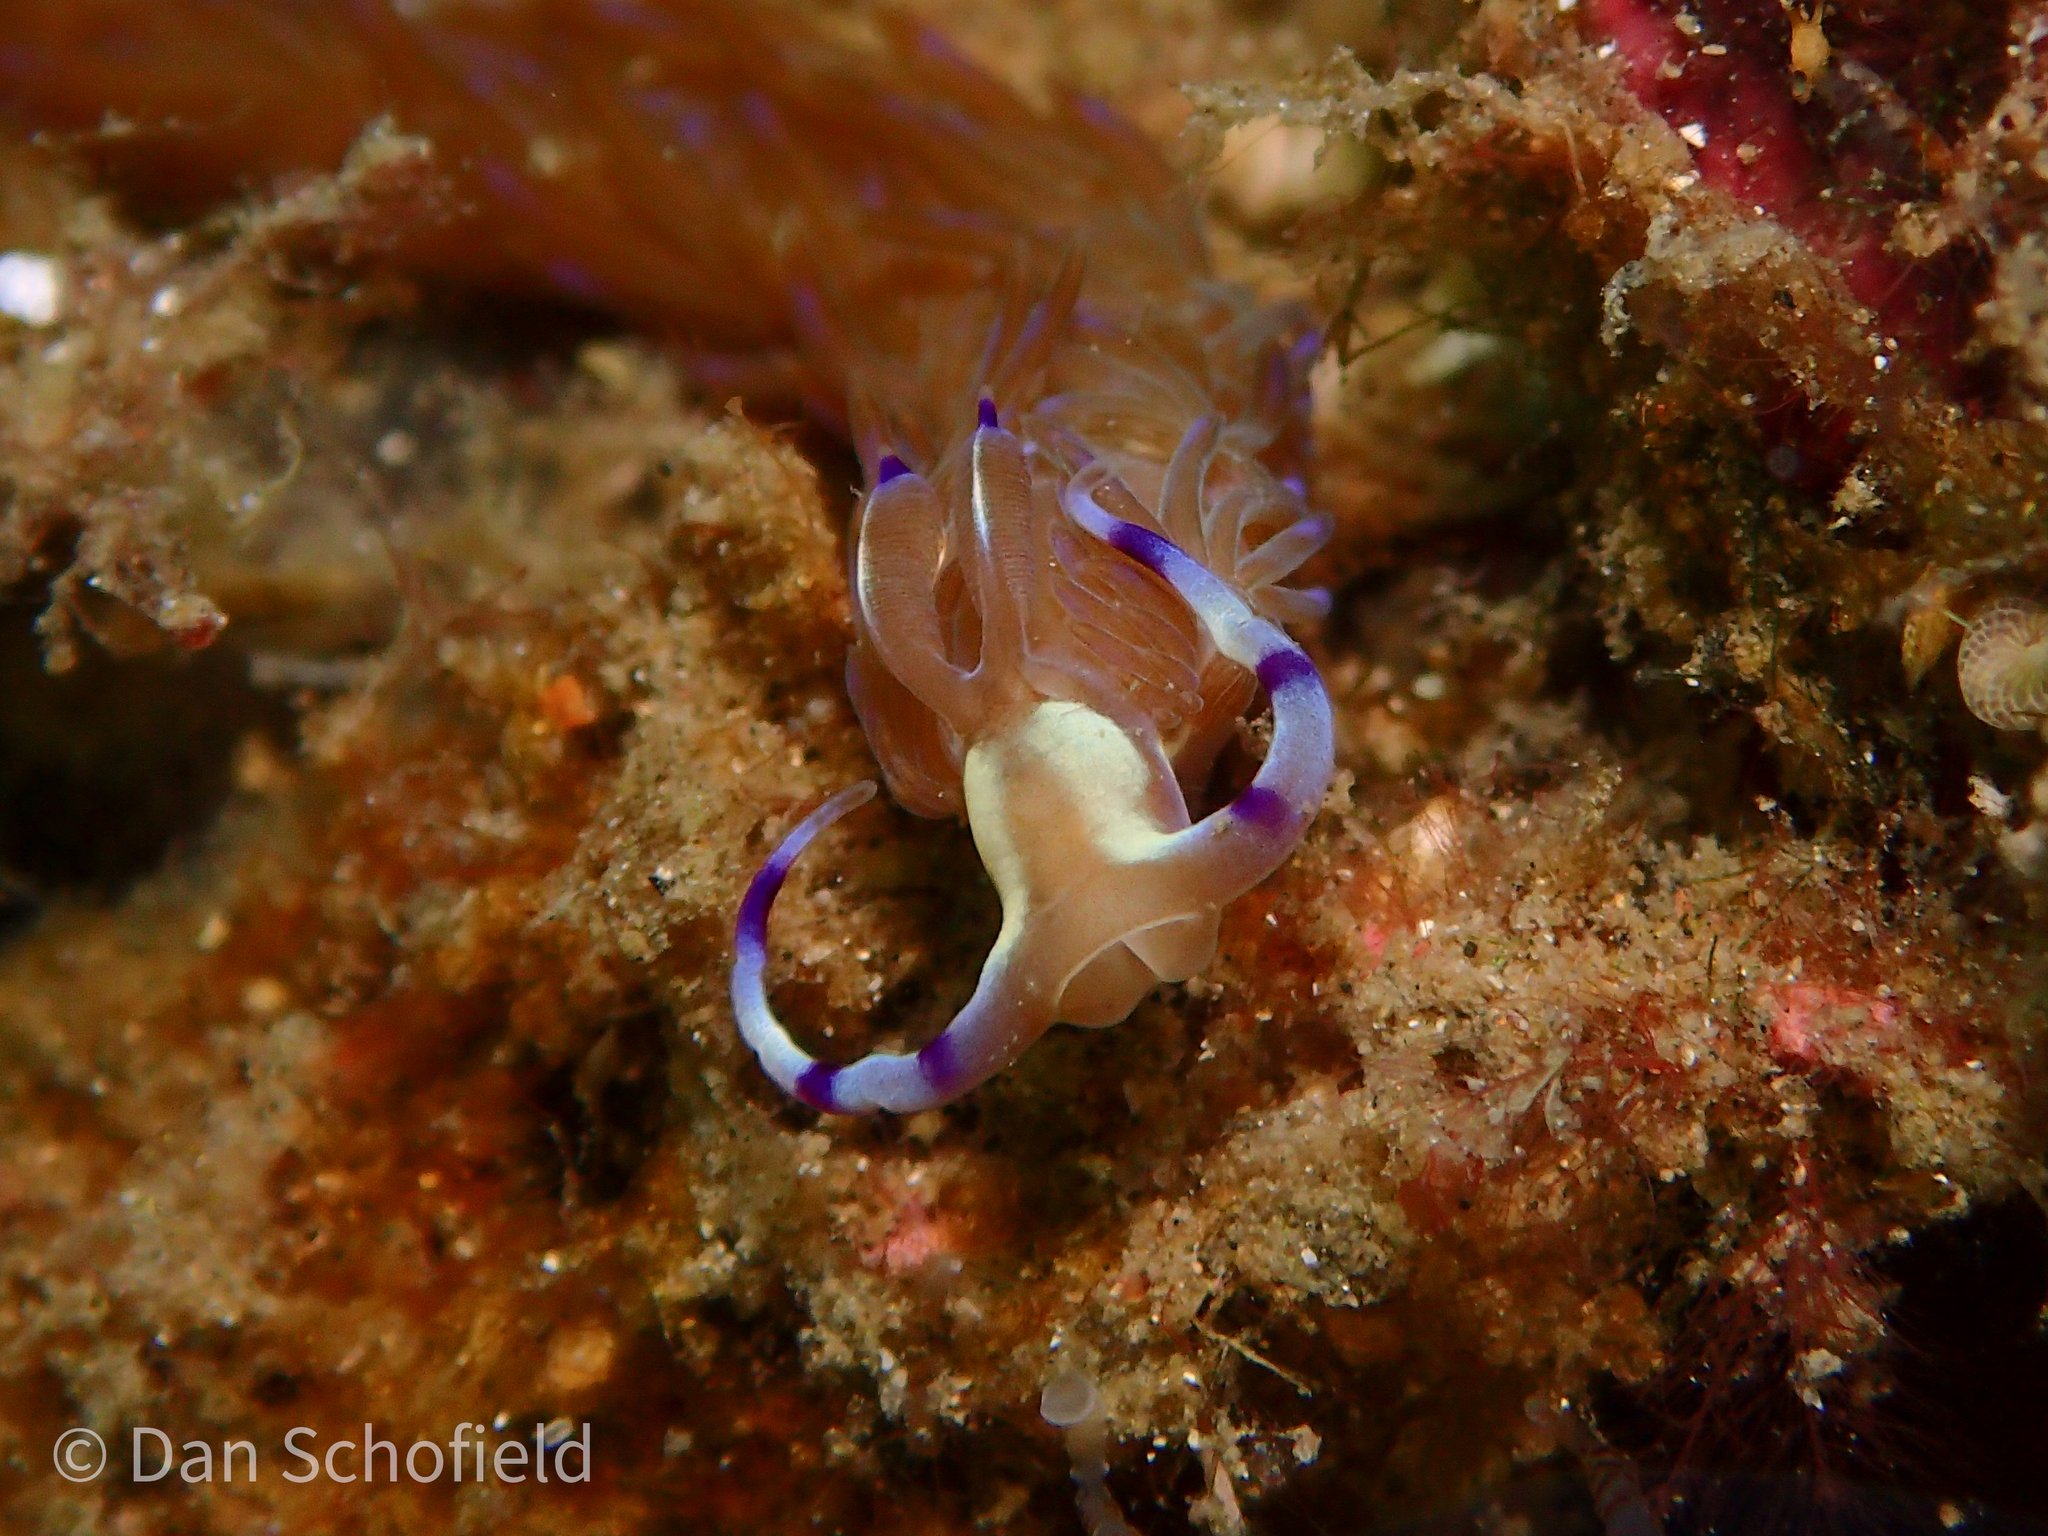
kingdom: Animalia
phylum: Mollusca
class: Gastropoda
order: Nudibranchia
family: Facelinidae
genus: Pteraeolidia
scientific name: Pteraeolidia semperi
